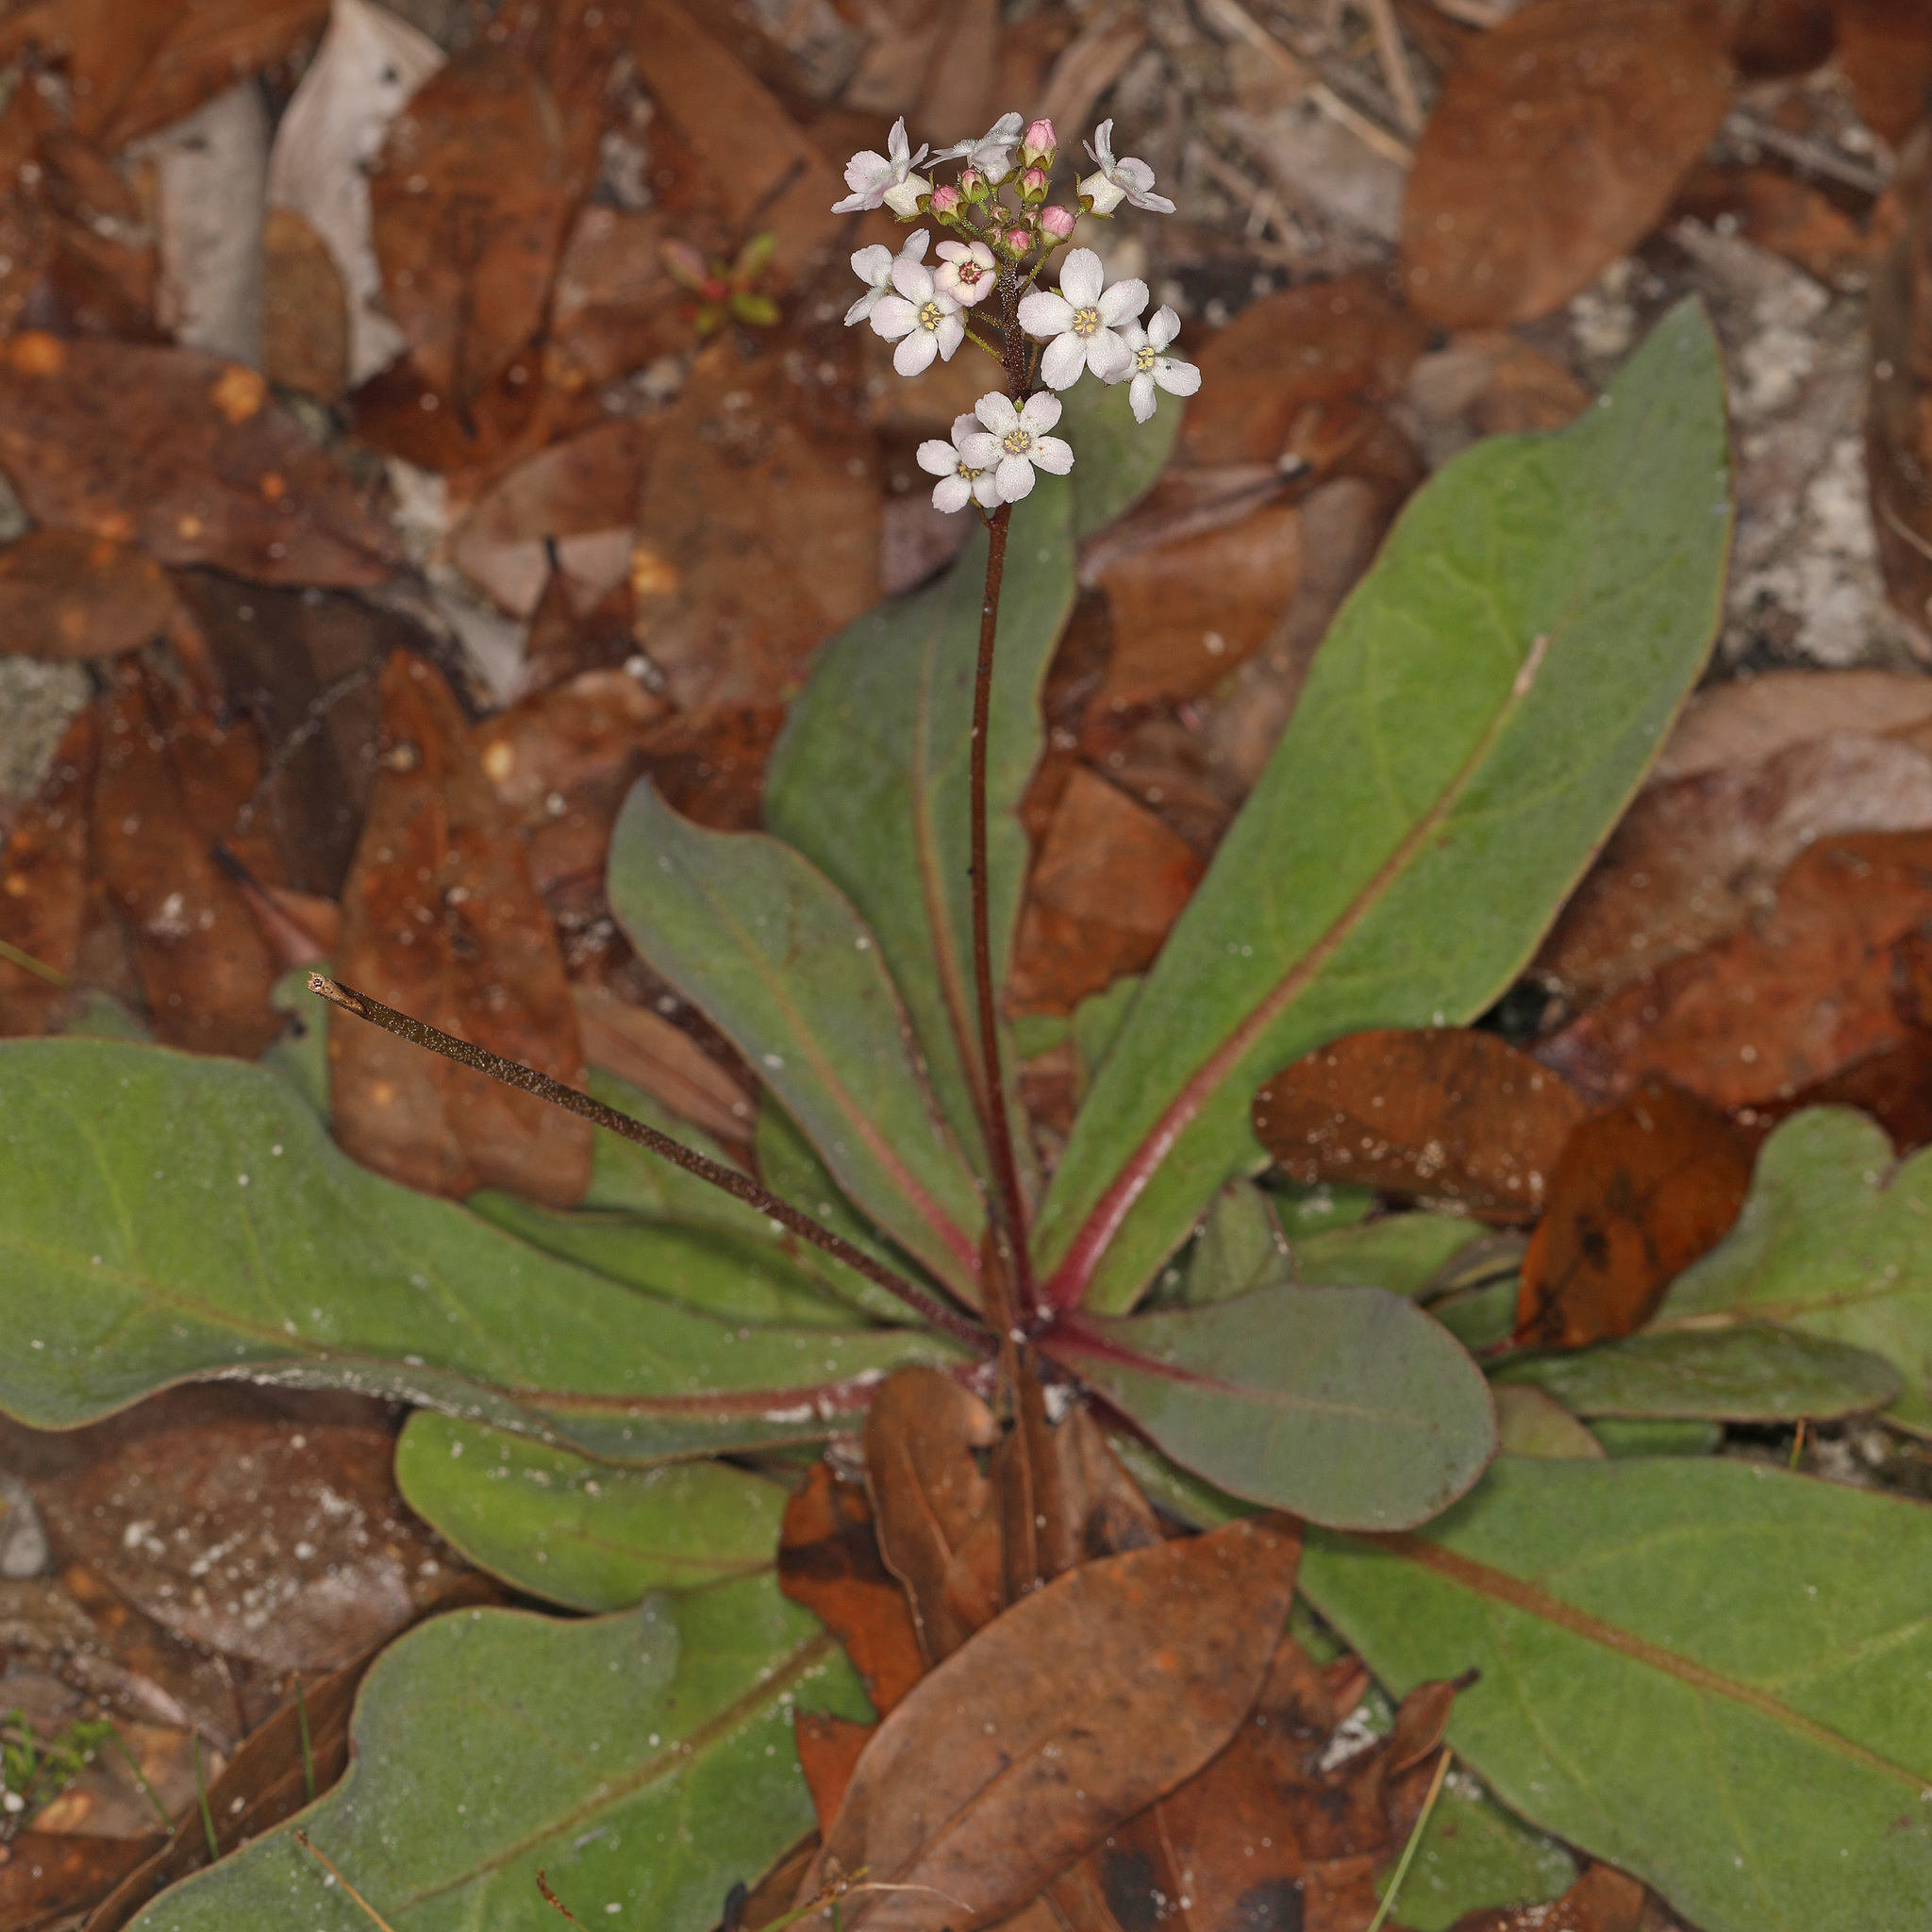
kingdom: Plantae
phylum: Tracheophyta
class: Magnoliopsida
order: Ericales
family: Primulaceae
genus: Samolus
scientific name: Samolus ebracteatus
